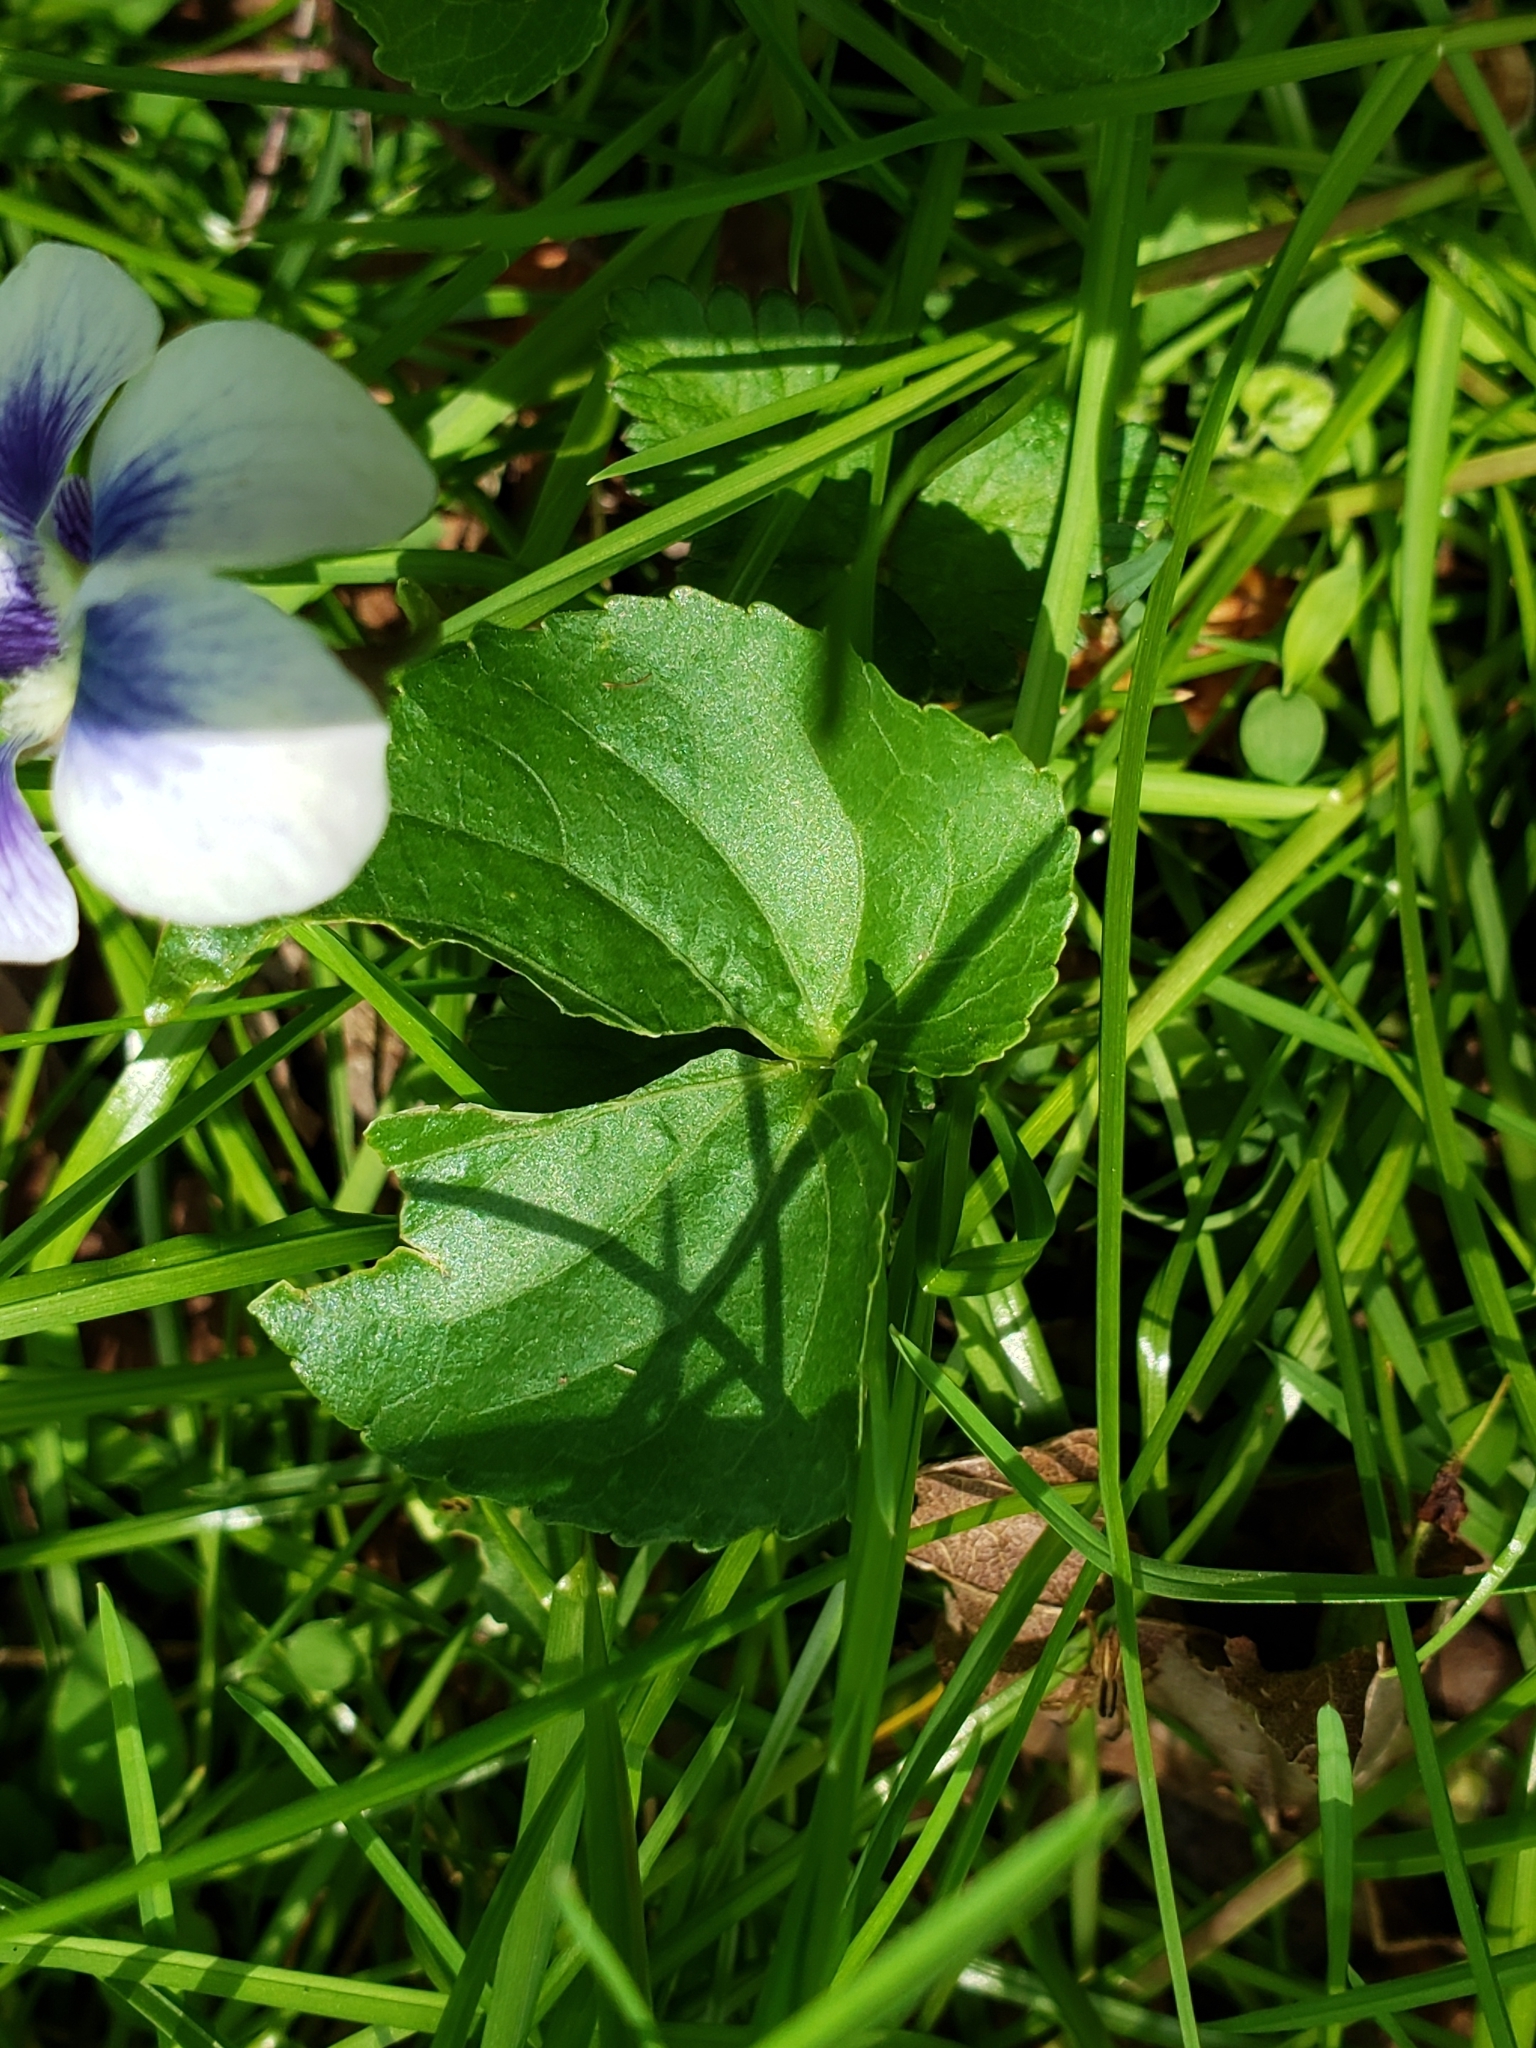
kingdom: Plantae
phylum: Tracheophyta
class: Magnoliopsida
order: Malpighiales
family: Violaceae
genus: Viola
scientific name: Viola sororia
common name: Dooryard violet
